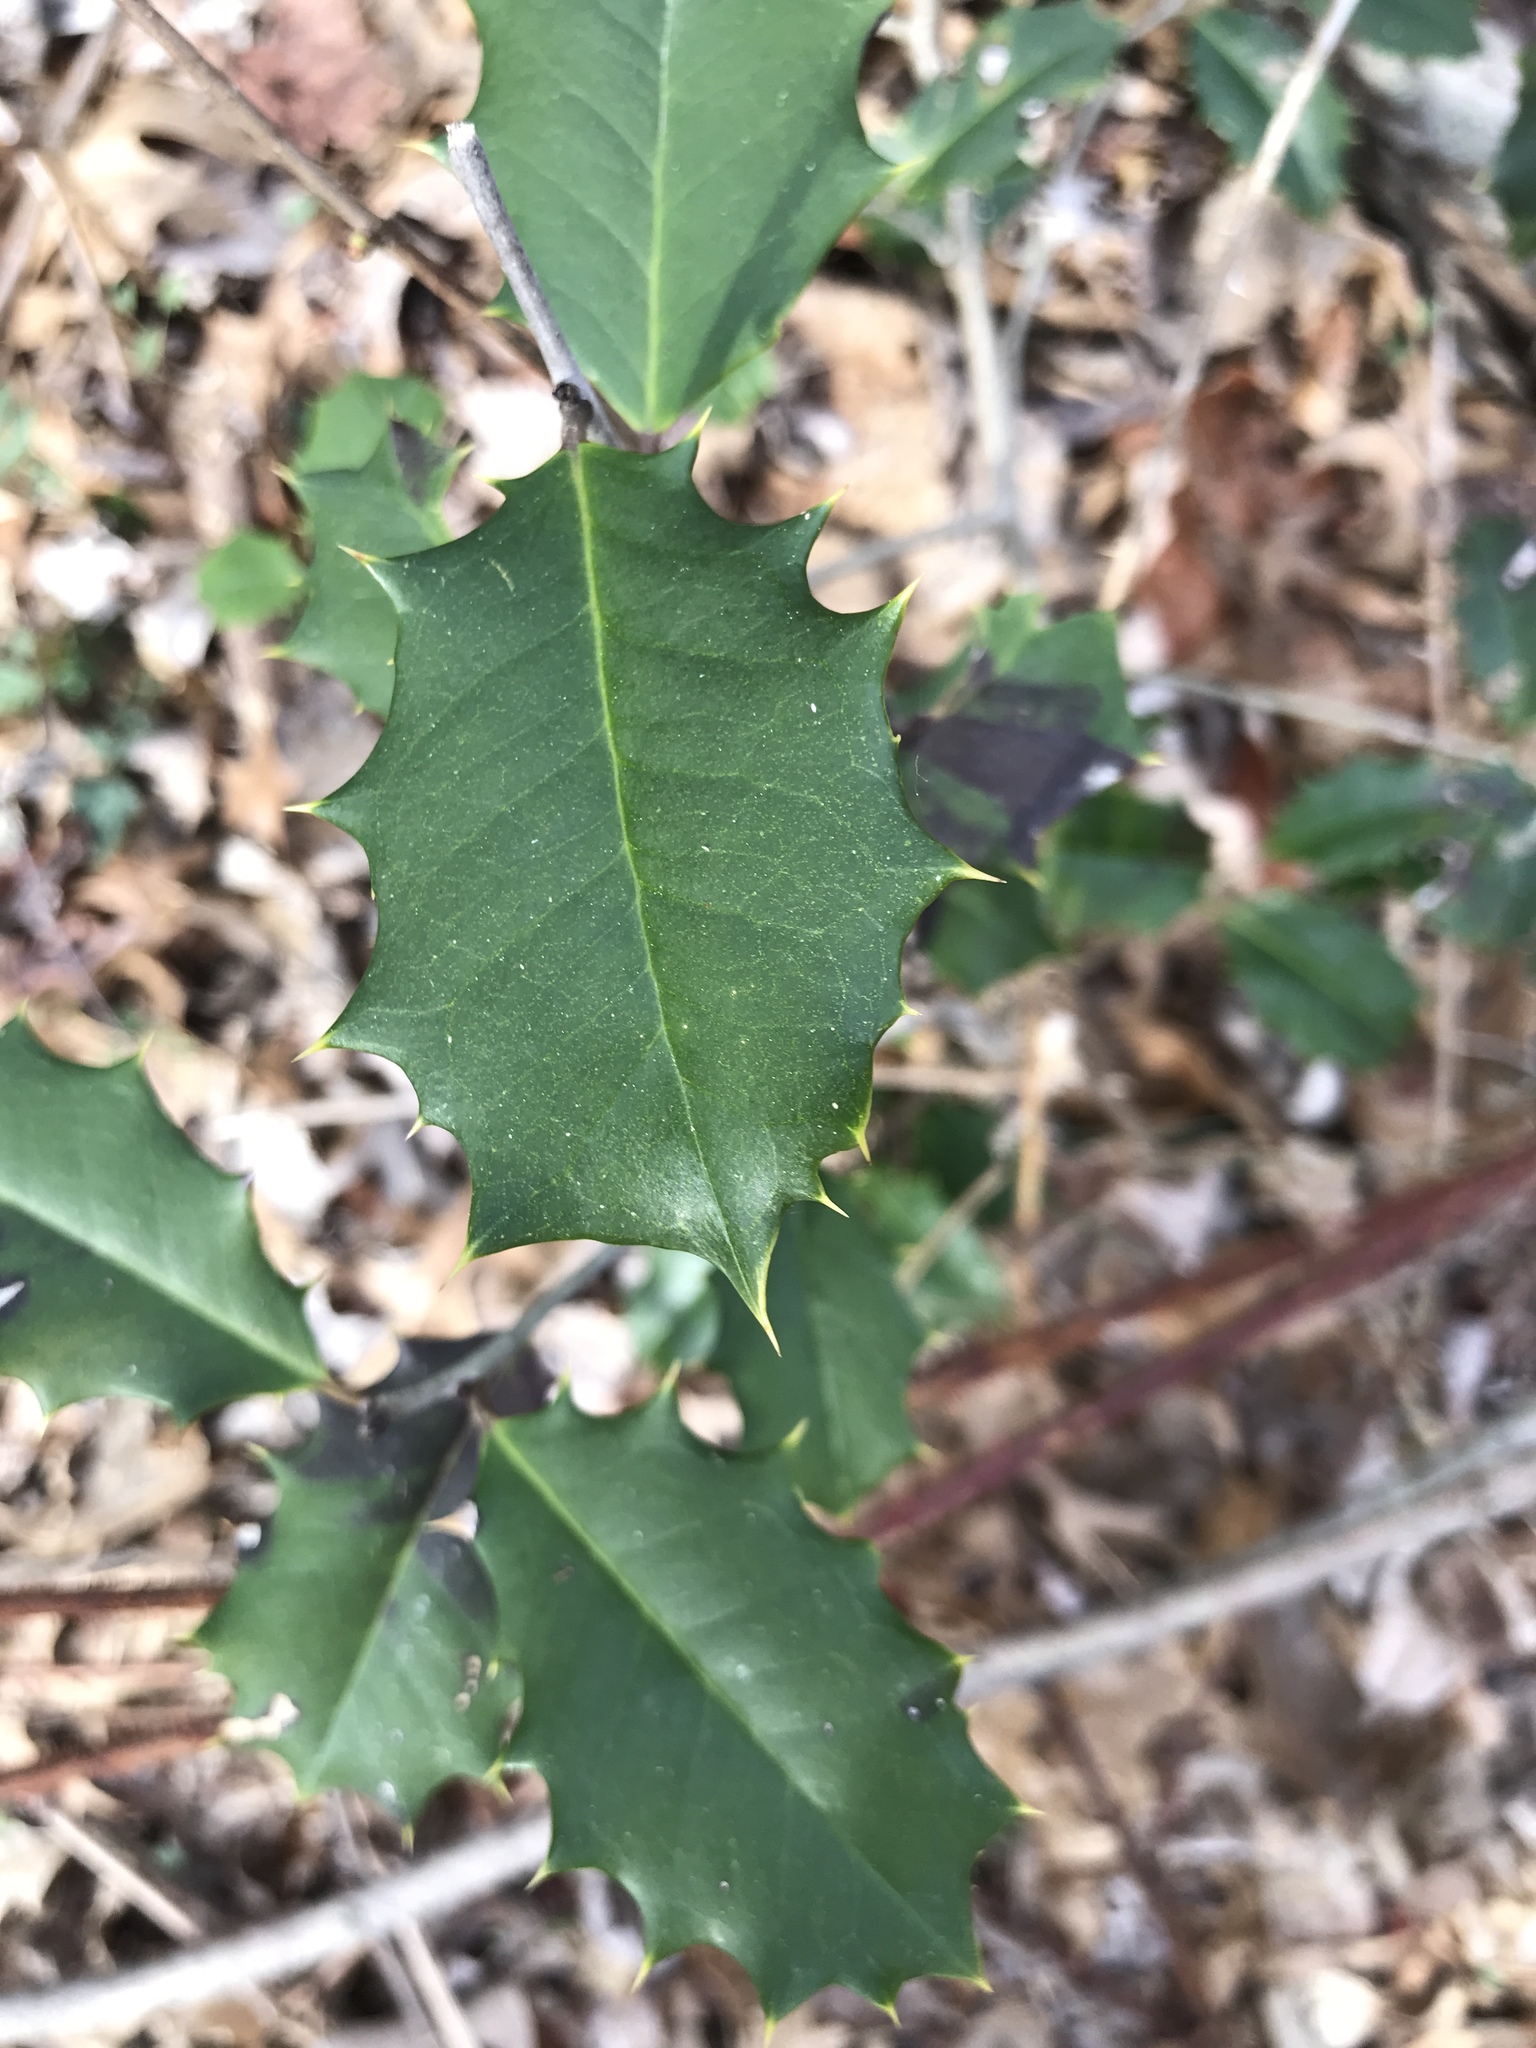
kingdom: Plantae
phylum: Tracheophyta
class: Magnoliopsida
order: Aquifoliales
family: Aquifoliaceae
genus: Ilex
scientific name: Ilex opaca
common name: American holly
